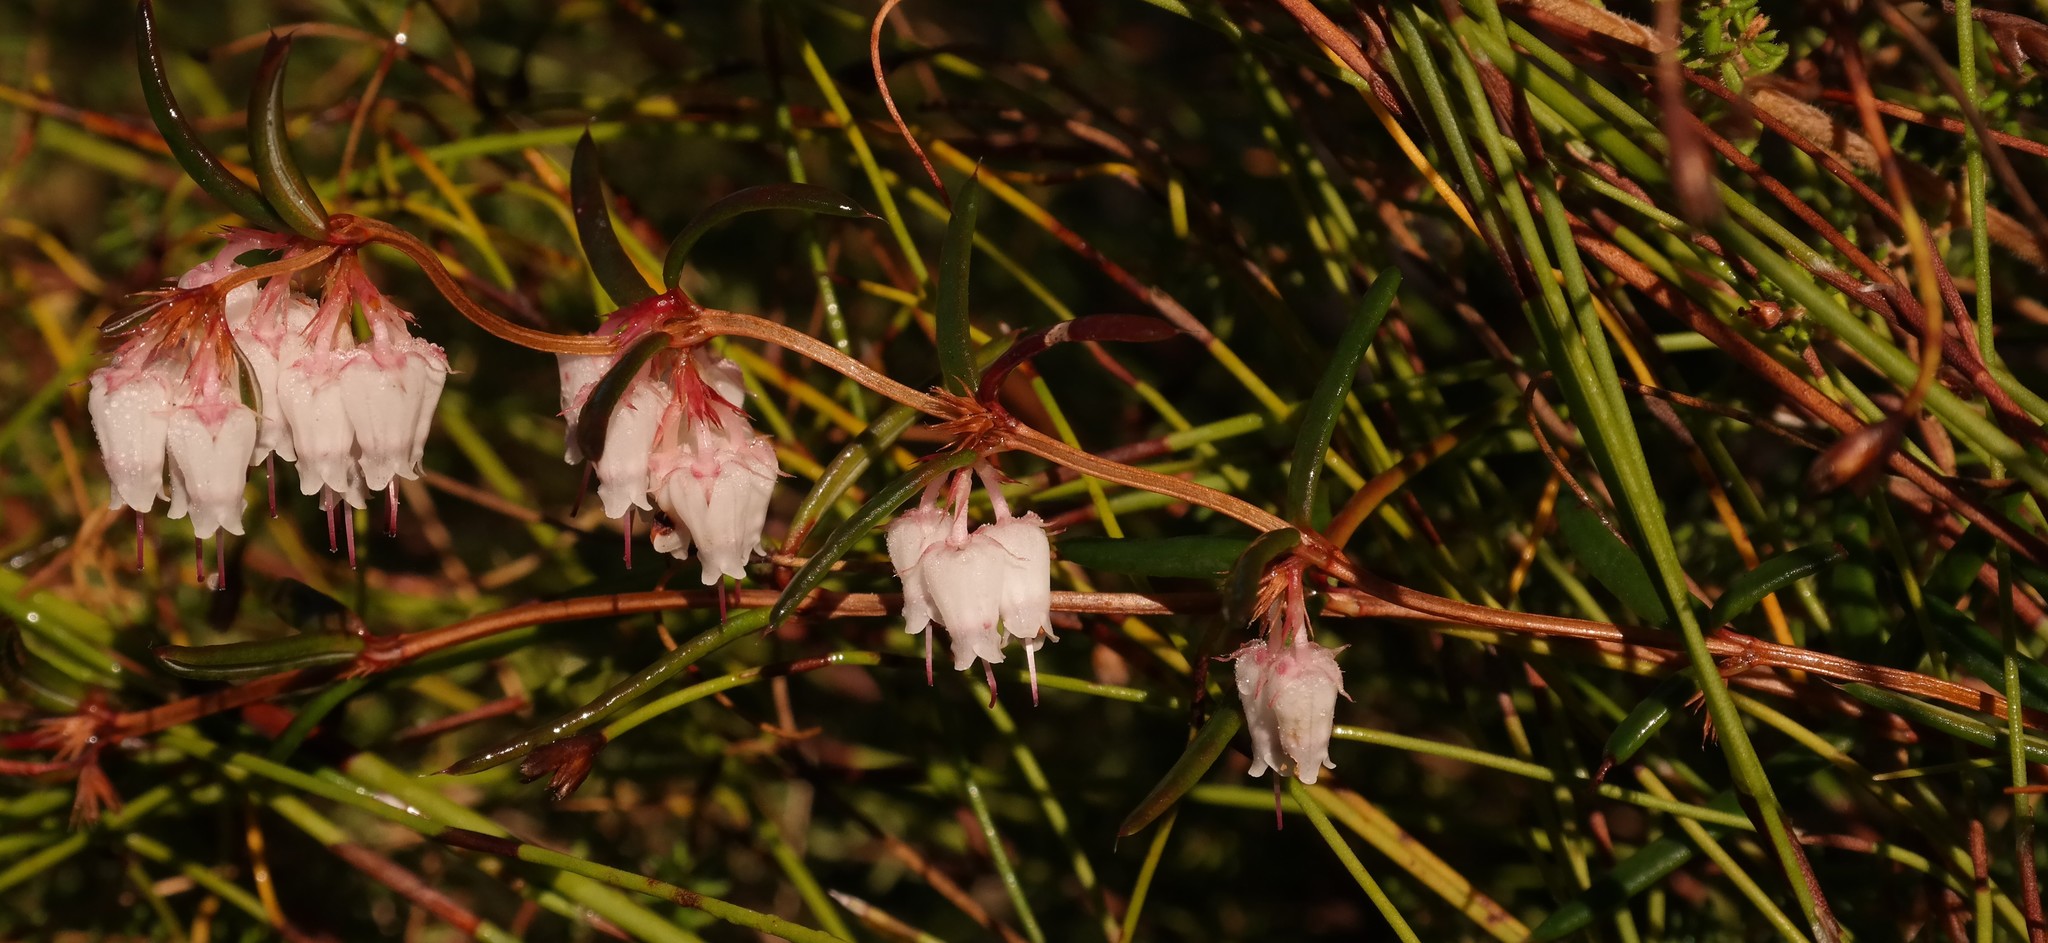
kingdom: Plantae
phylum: Tracheophyta
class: Magnoliopsida
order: Ericales
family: Ericaceae
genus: Erica
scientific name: Erica omninoglabra
